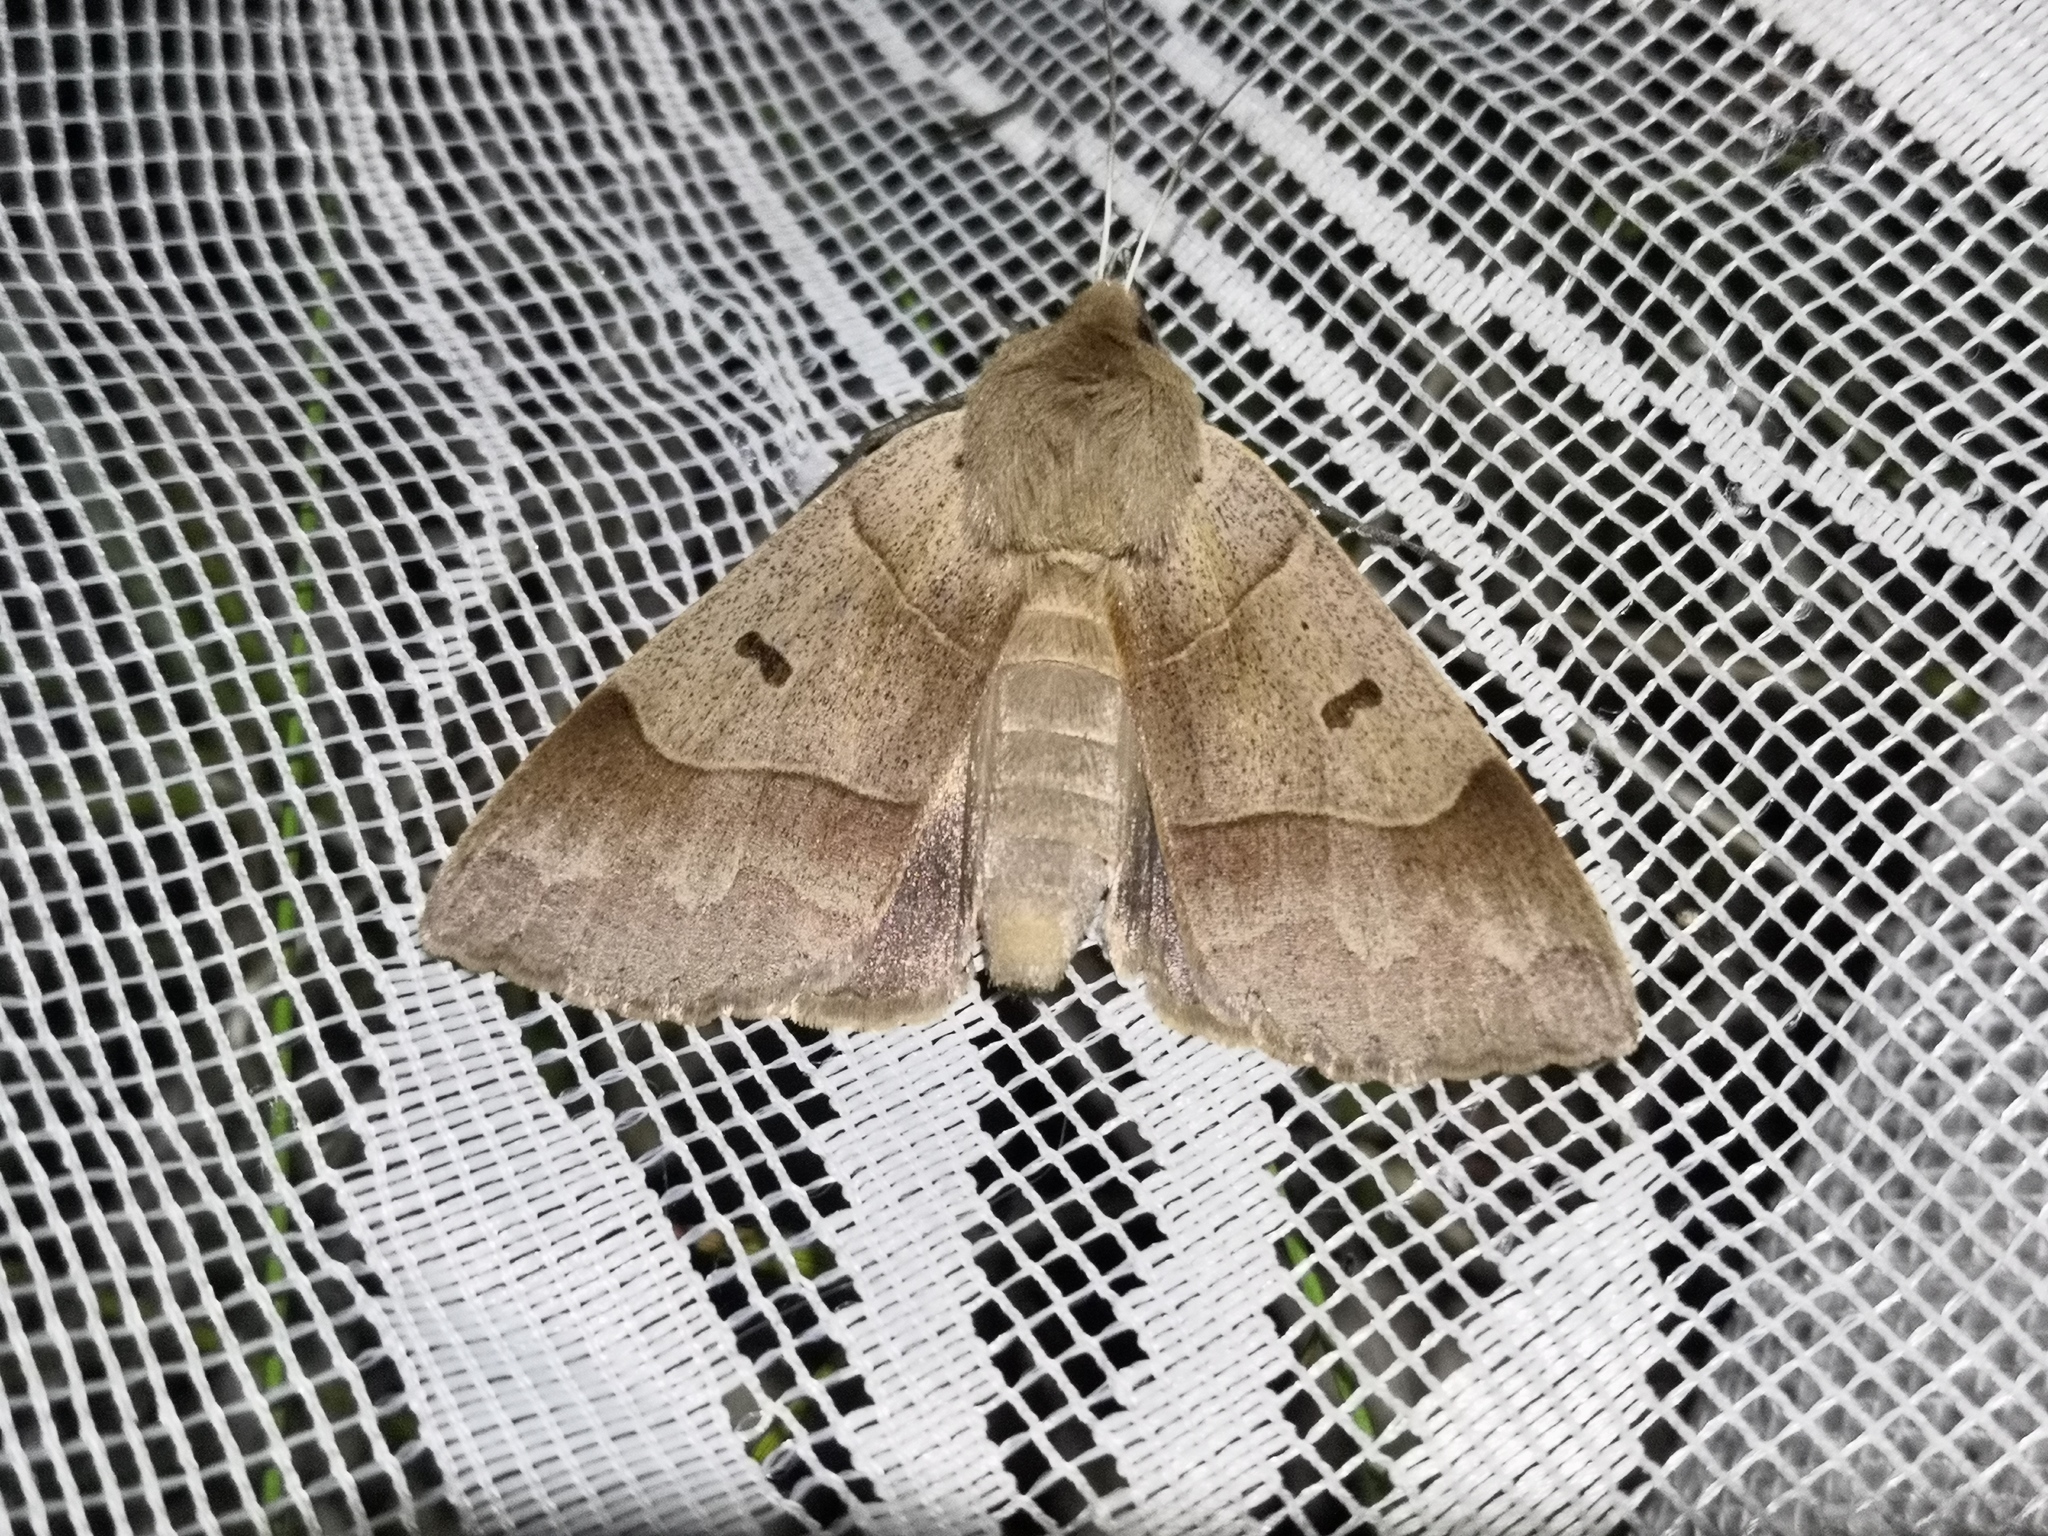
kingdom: Animalia
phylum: Arthropoda
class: Insecta
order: Lepidoptera
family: Erebidae
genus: Minucia
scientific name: Minucia lunaris
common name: Lunar double-stripe
